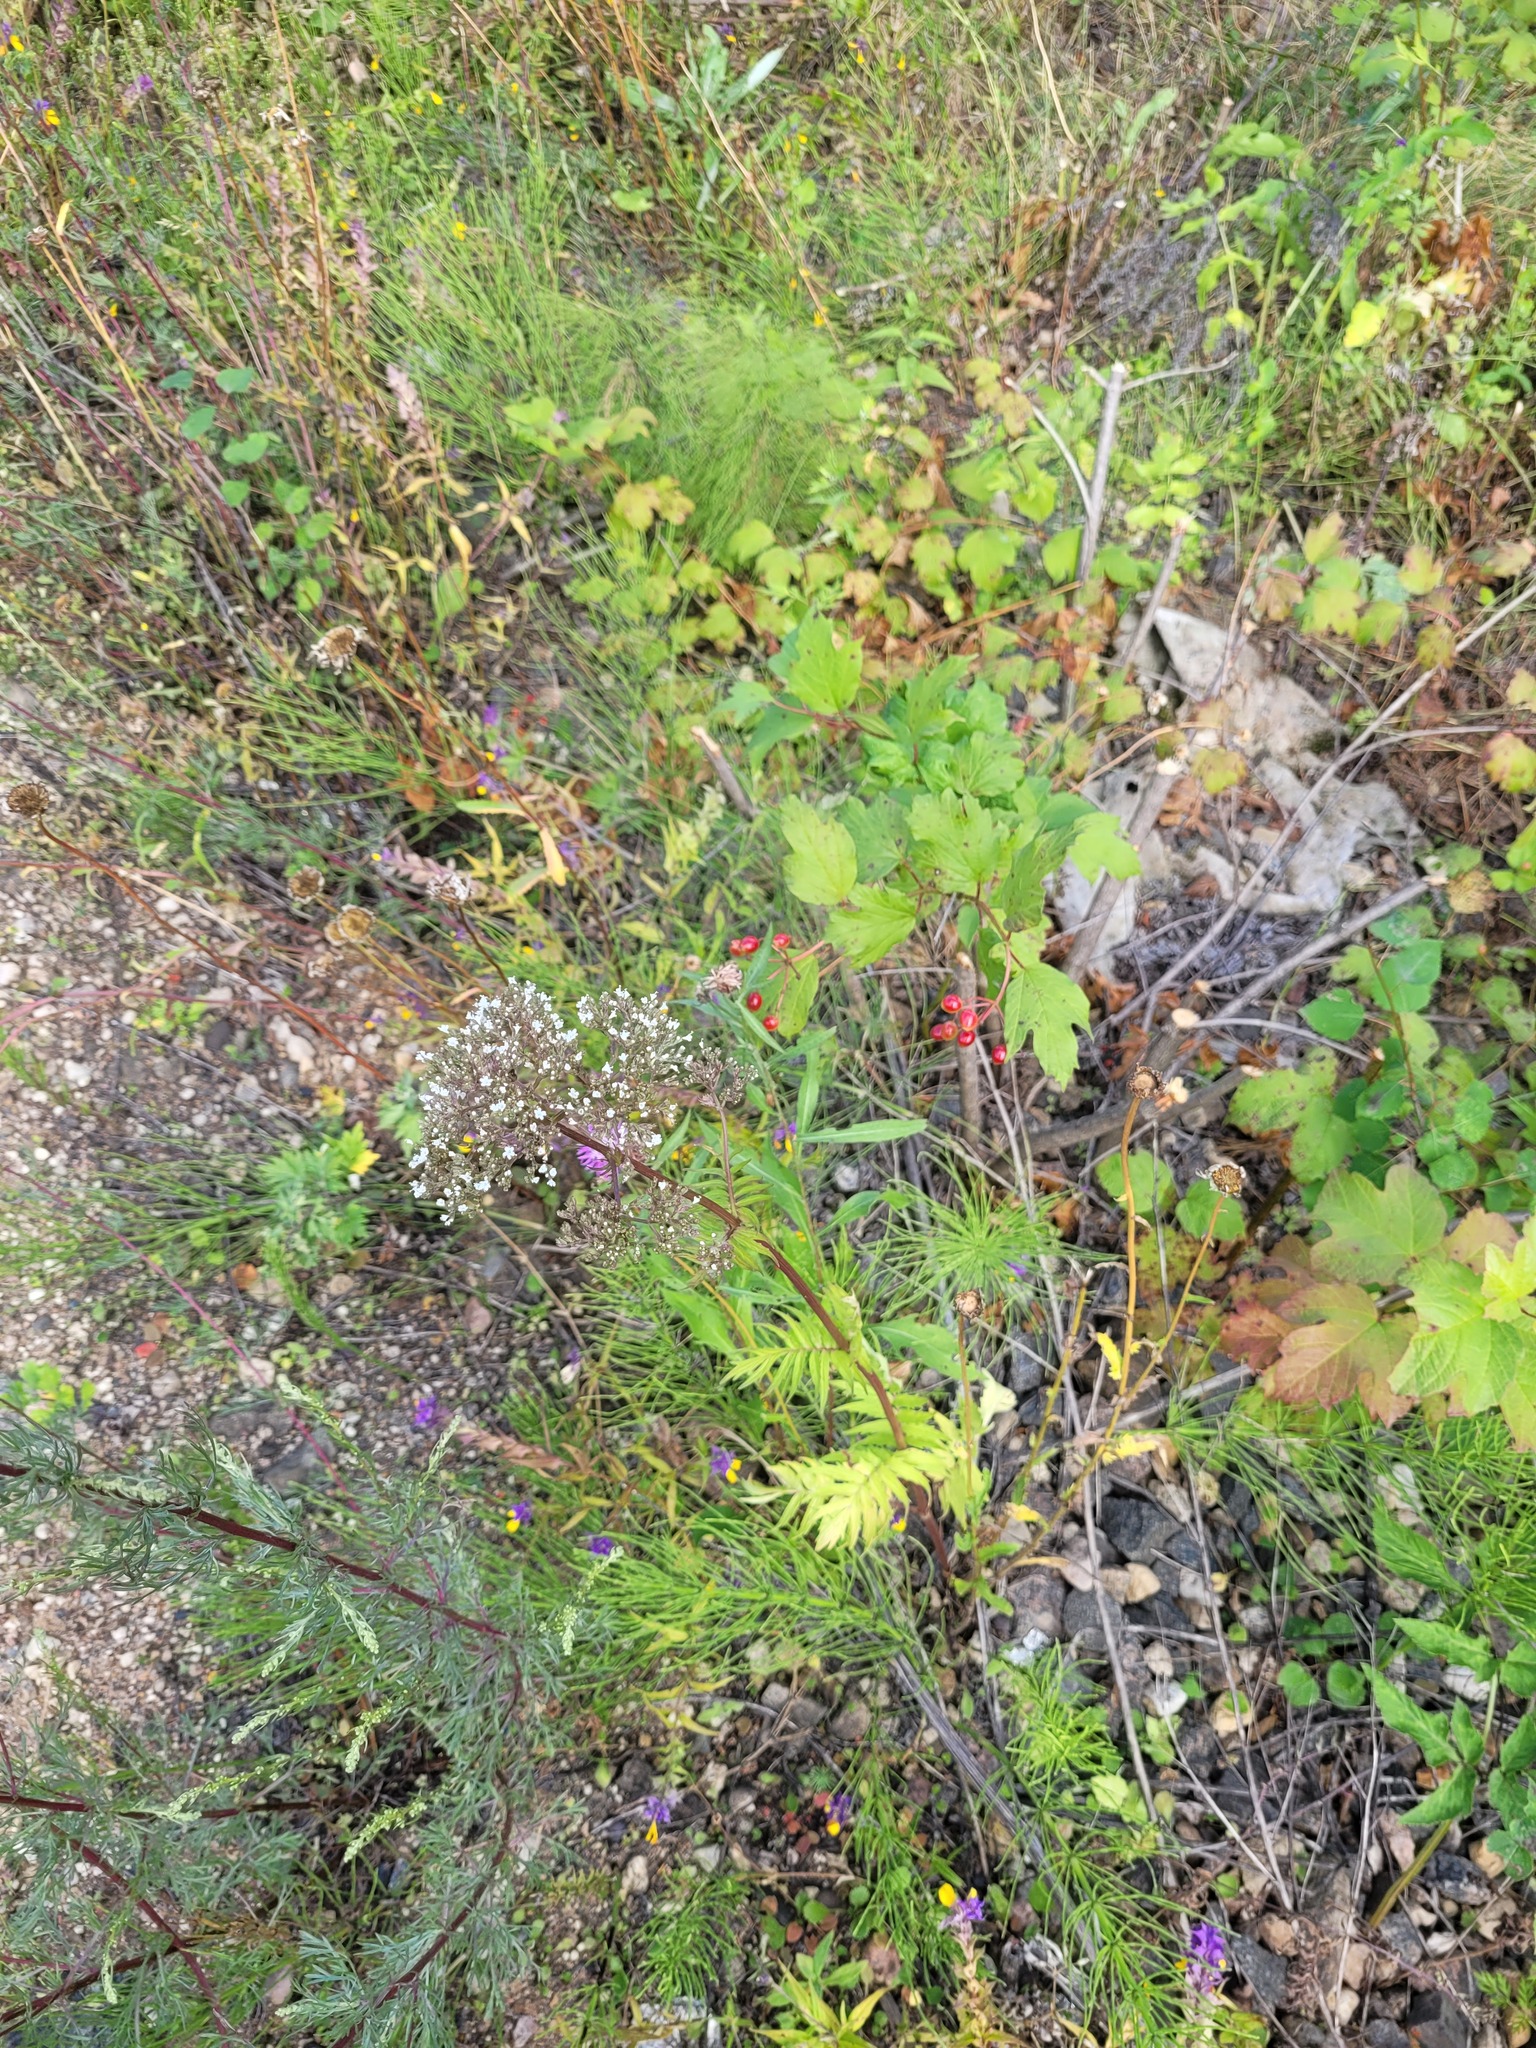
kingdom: Plantae
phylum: Tracheophyta
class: Magnoliopsida
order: Dipsacales
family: Caprifoliaceae
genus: Valeriana
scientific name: Valeriana officinalis
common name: Common valerian
